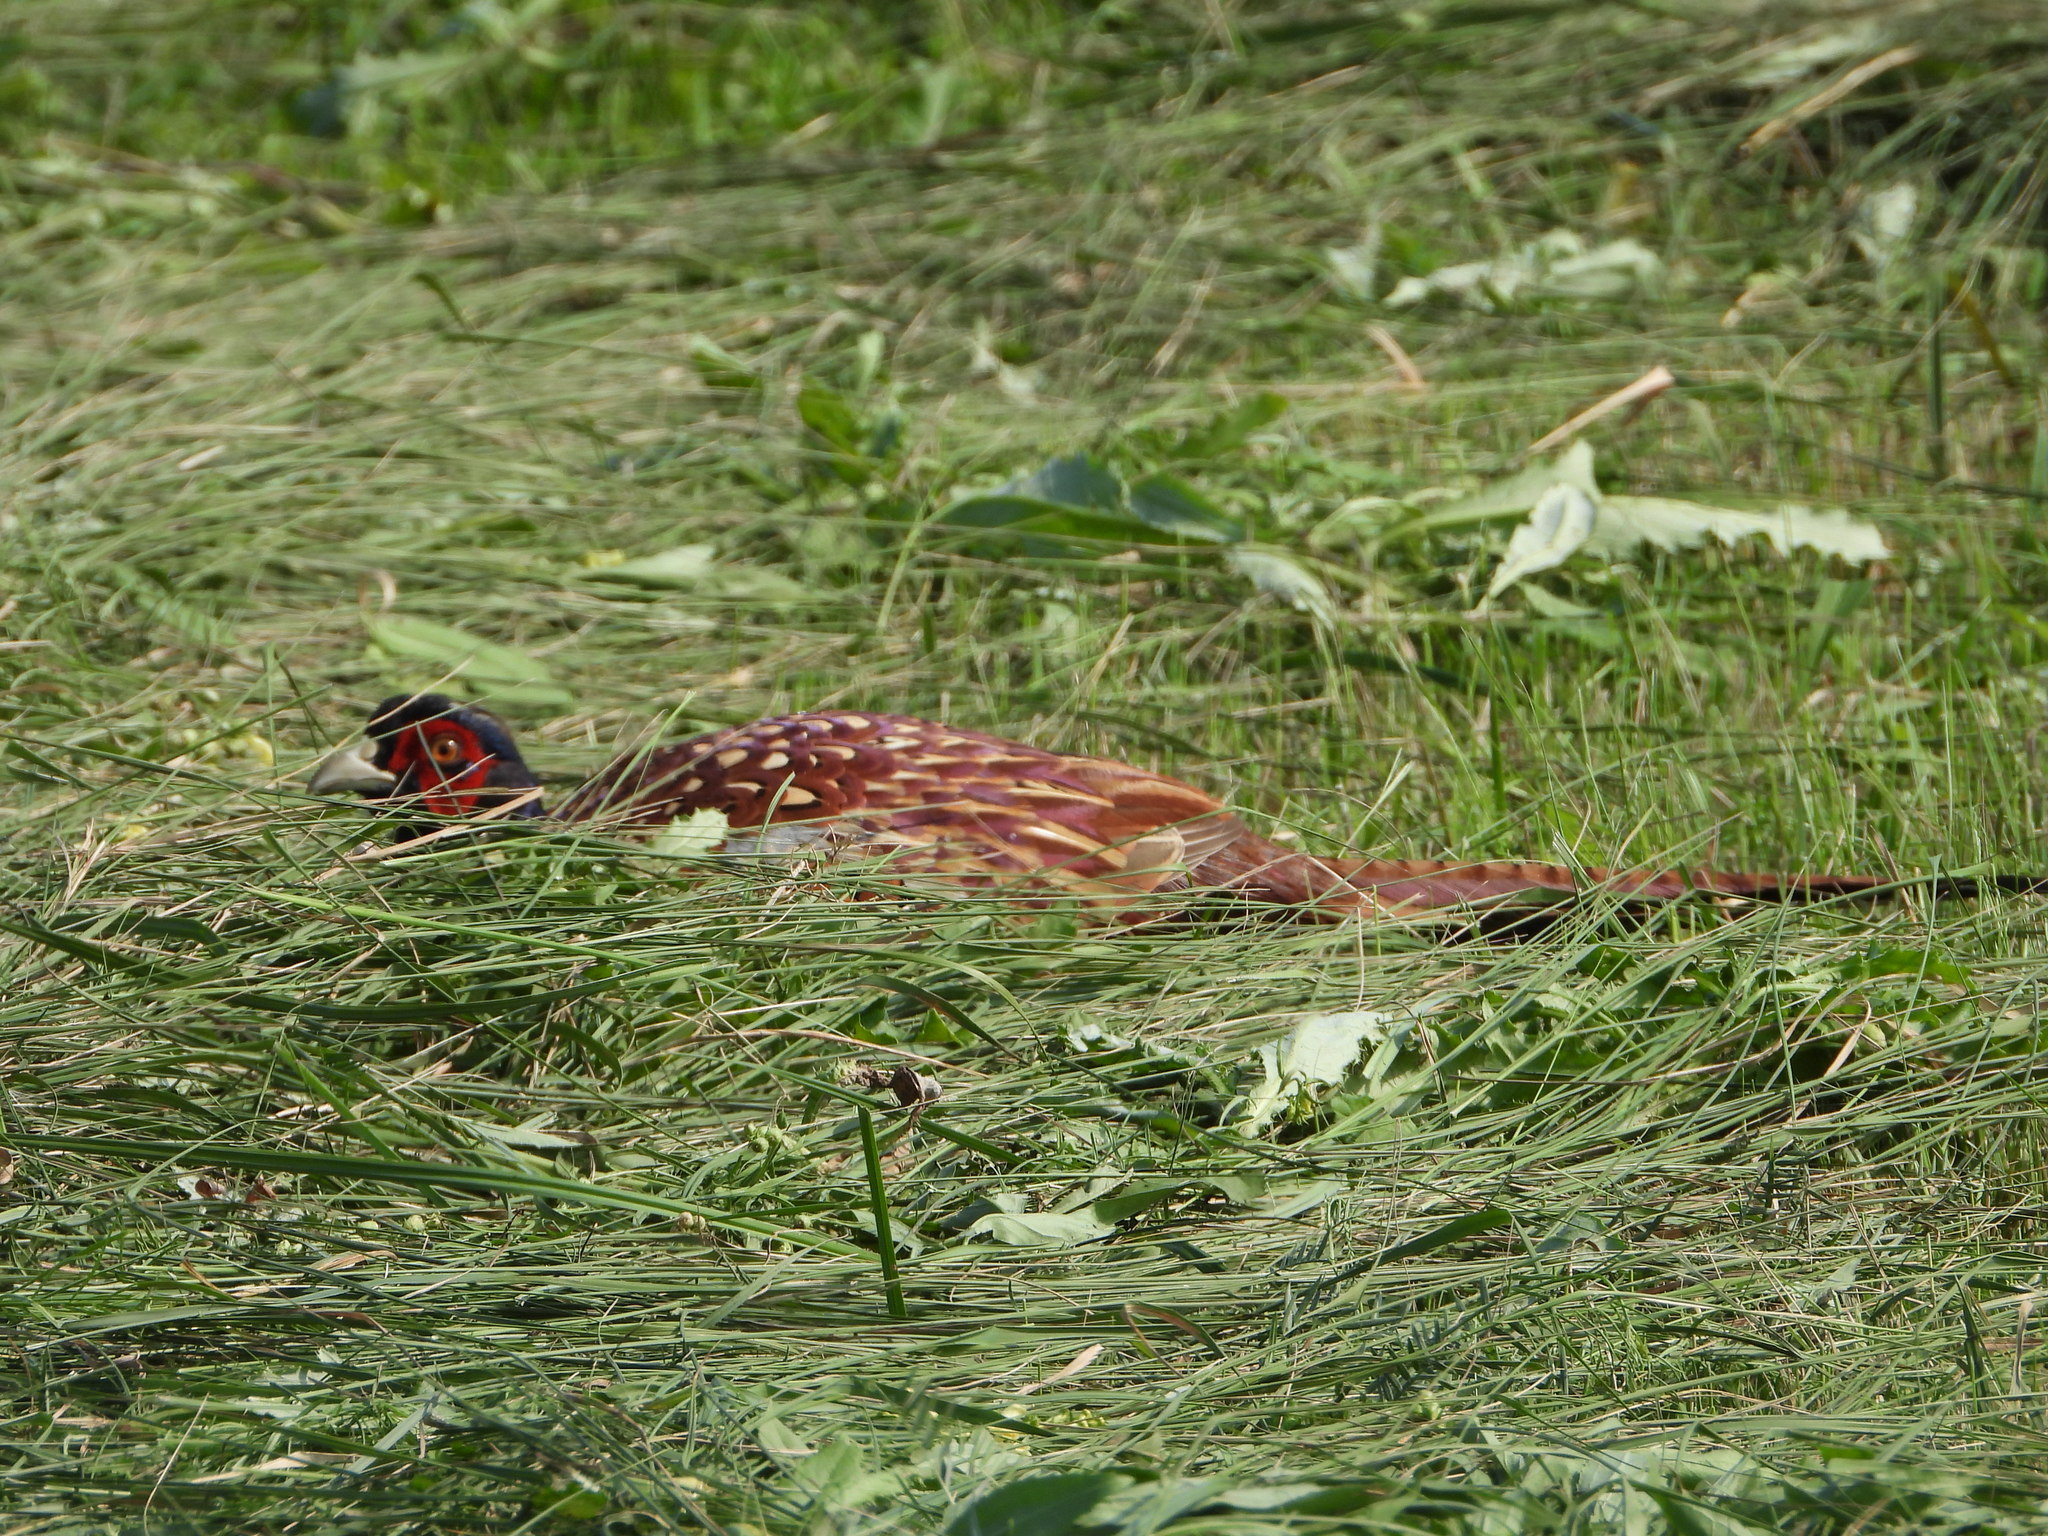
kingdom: Animalia
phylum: Chordata
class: Aves
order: Galliformes
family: Phasianidae
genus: Phasianus
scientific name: Phasianus colchicus
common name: Common pheasant
